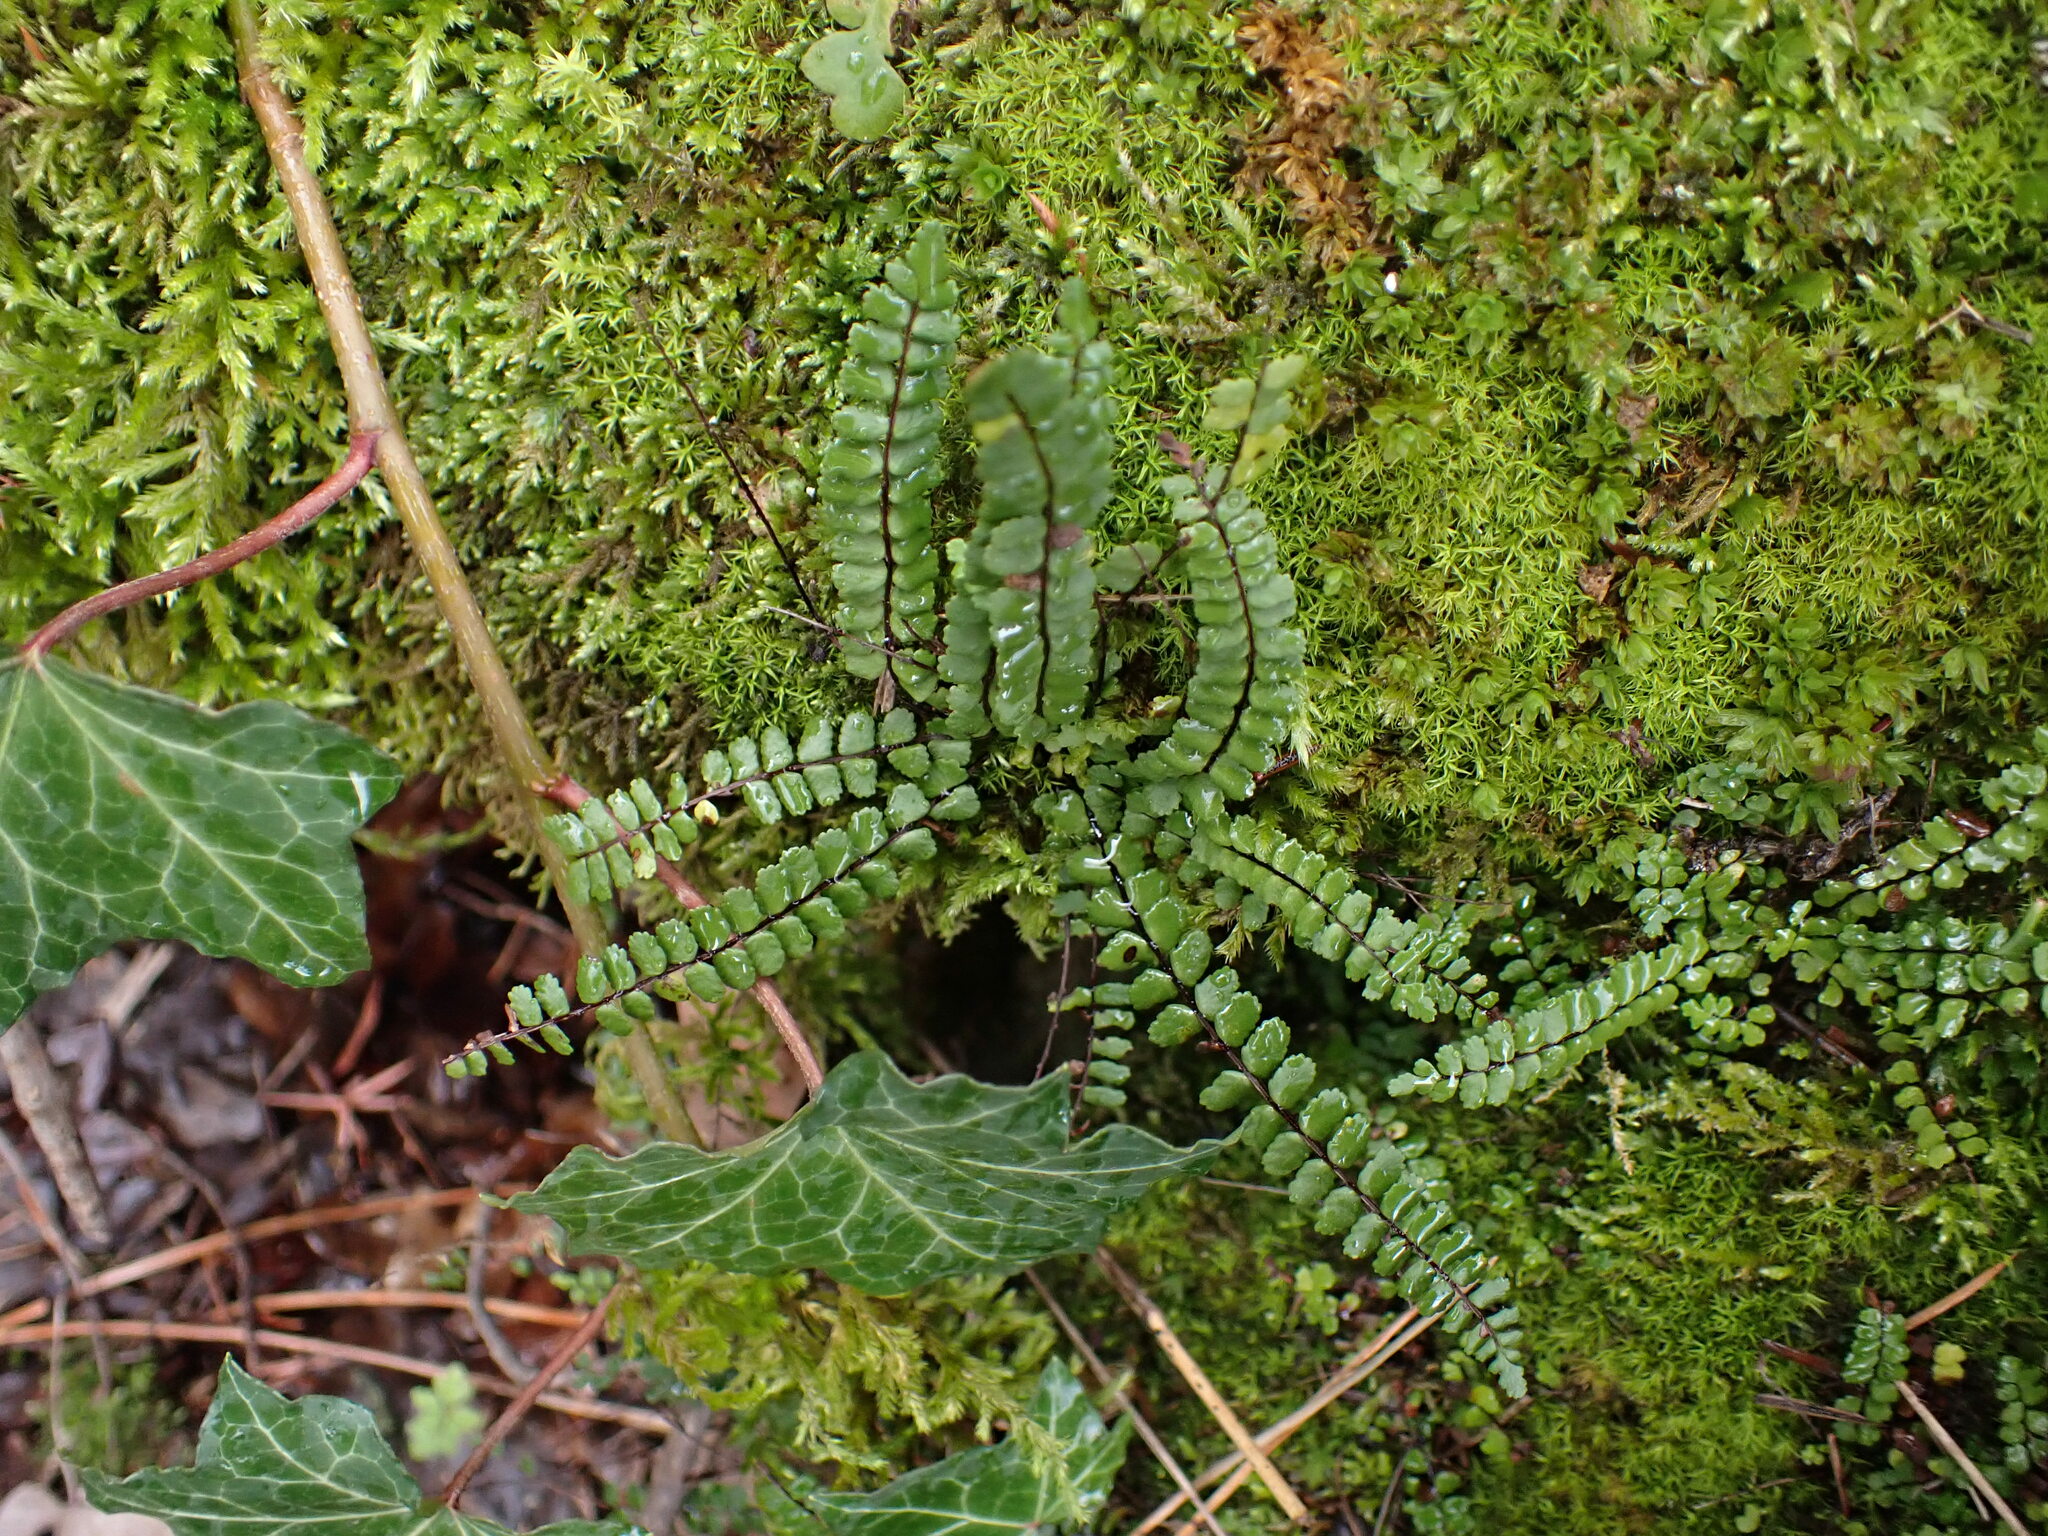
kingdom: Plantae
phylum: Tracheophyta
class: Polypodiopsida
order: Polypodiales
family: Aspleniaceae
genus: Asplenium
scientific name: Asplenium trichomanes
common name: Maidenhair spleenwort
